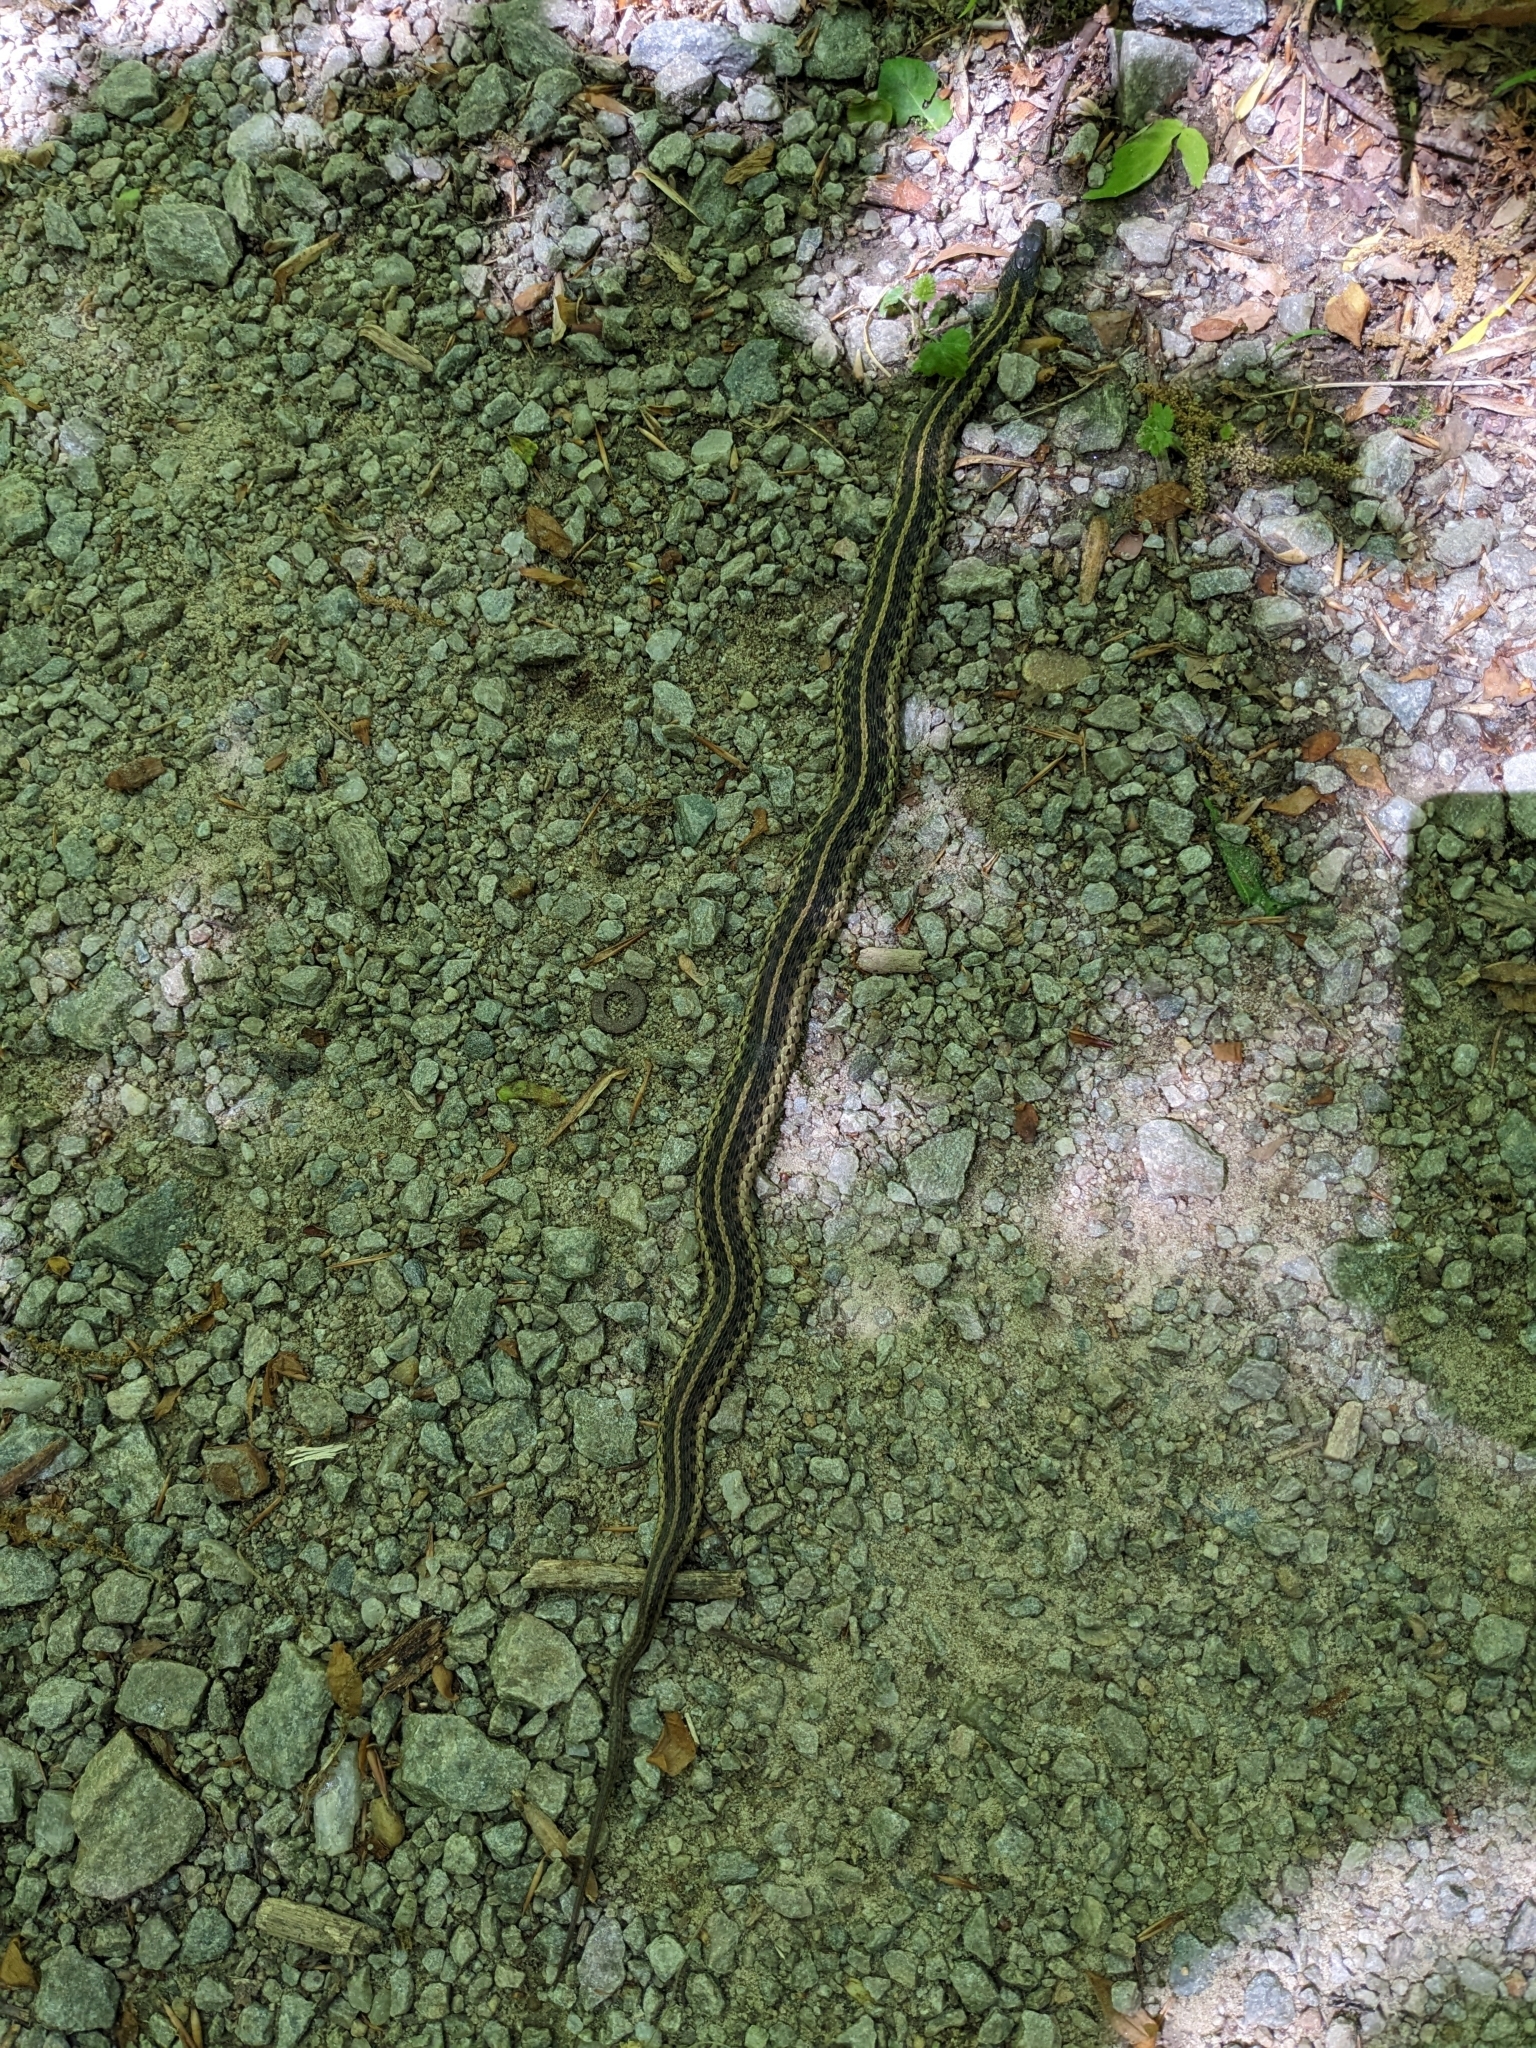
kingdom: Animalia
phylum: Chordata
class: Squamata
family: Colubridae
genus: Thamnophis
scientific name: Thamnophis sirtalis
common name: Common garter snake
